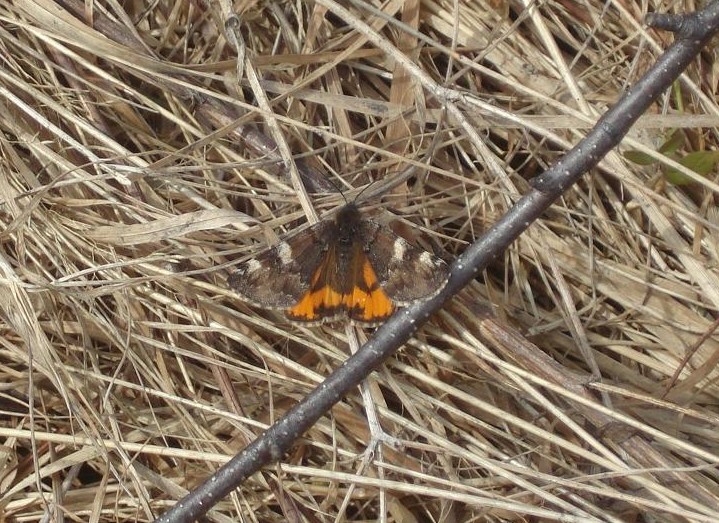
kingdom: Animalia
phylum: Arthropoda
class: Insecta
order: Lepidoptera
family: Geometridae
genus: Archiearis
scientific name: Archiearis parthenias
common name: Orange underwing
